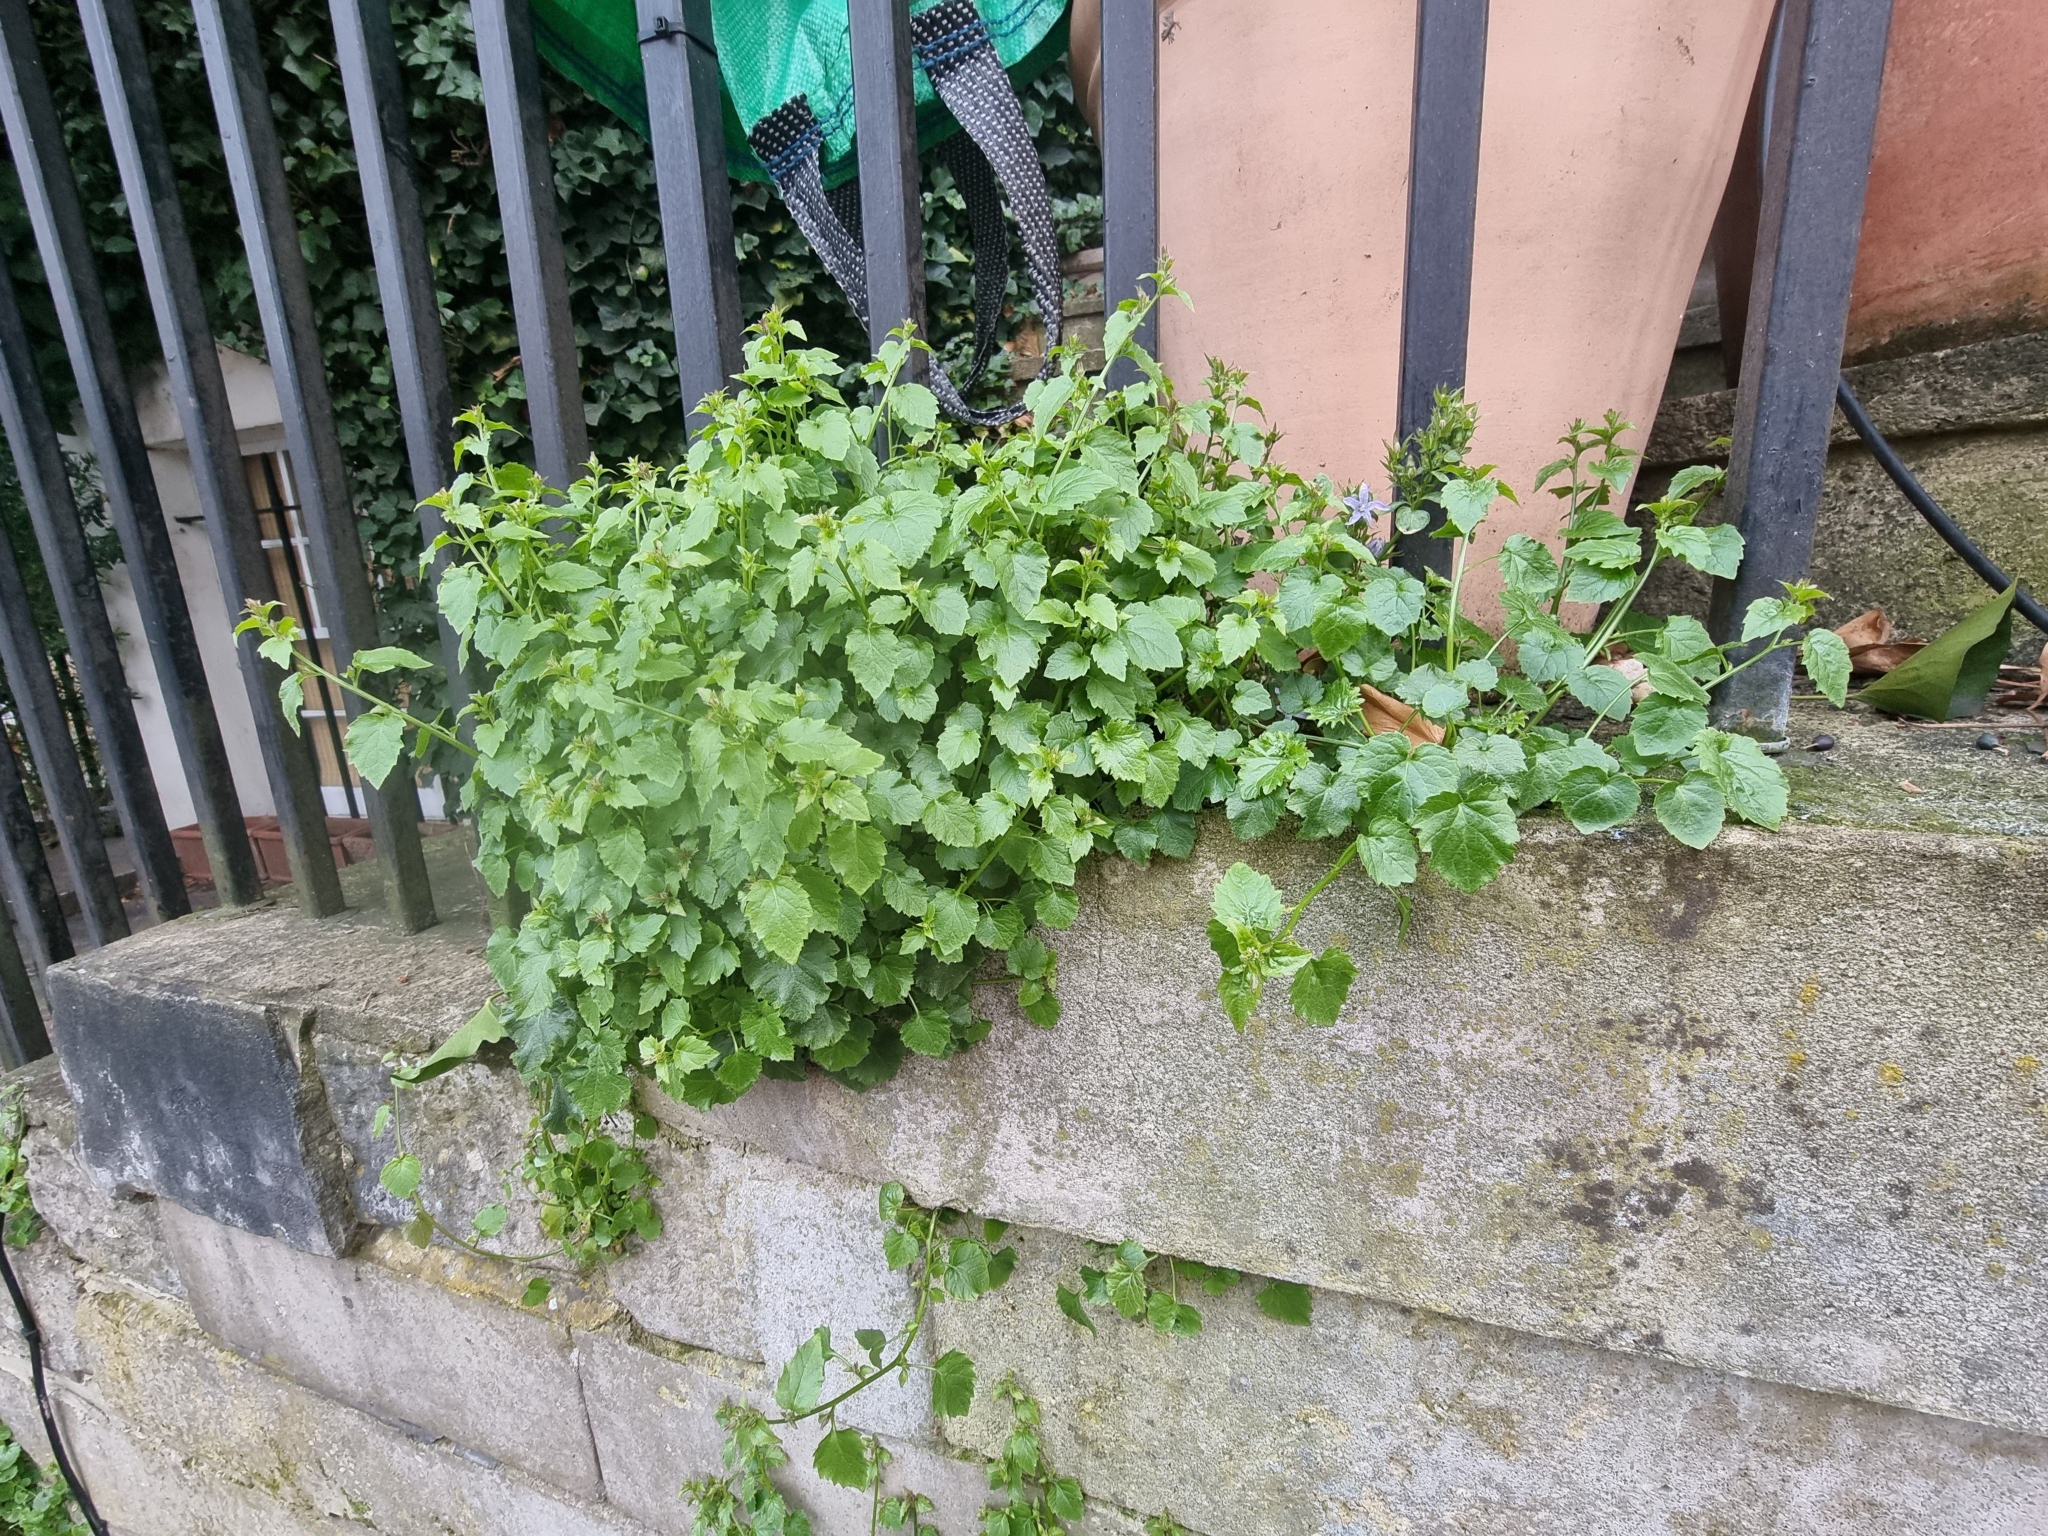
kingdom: Plantae
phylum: Tracheophyta
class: Magnoliopsida
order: Asterales
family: Campanulaceae
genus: Campanula
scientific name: Campanula poscharskyana
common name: Trailing bellflower
